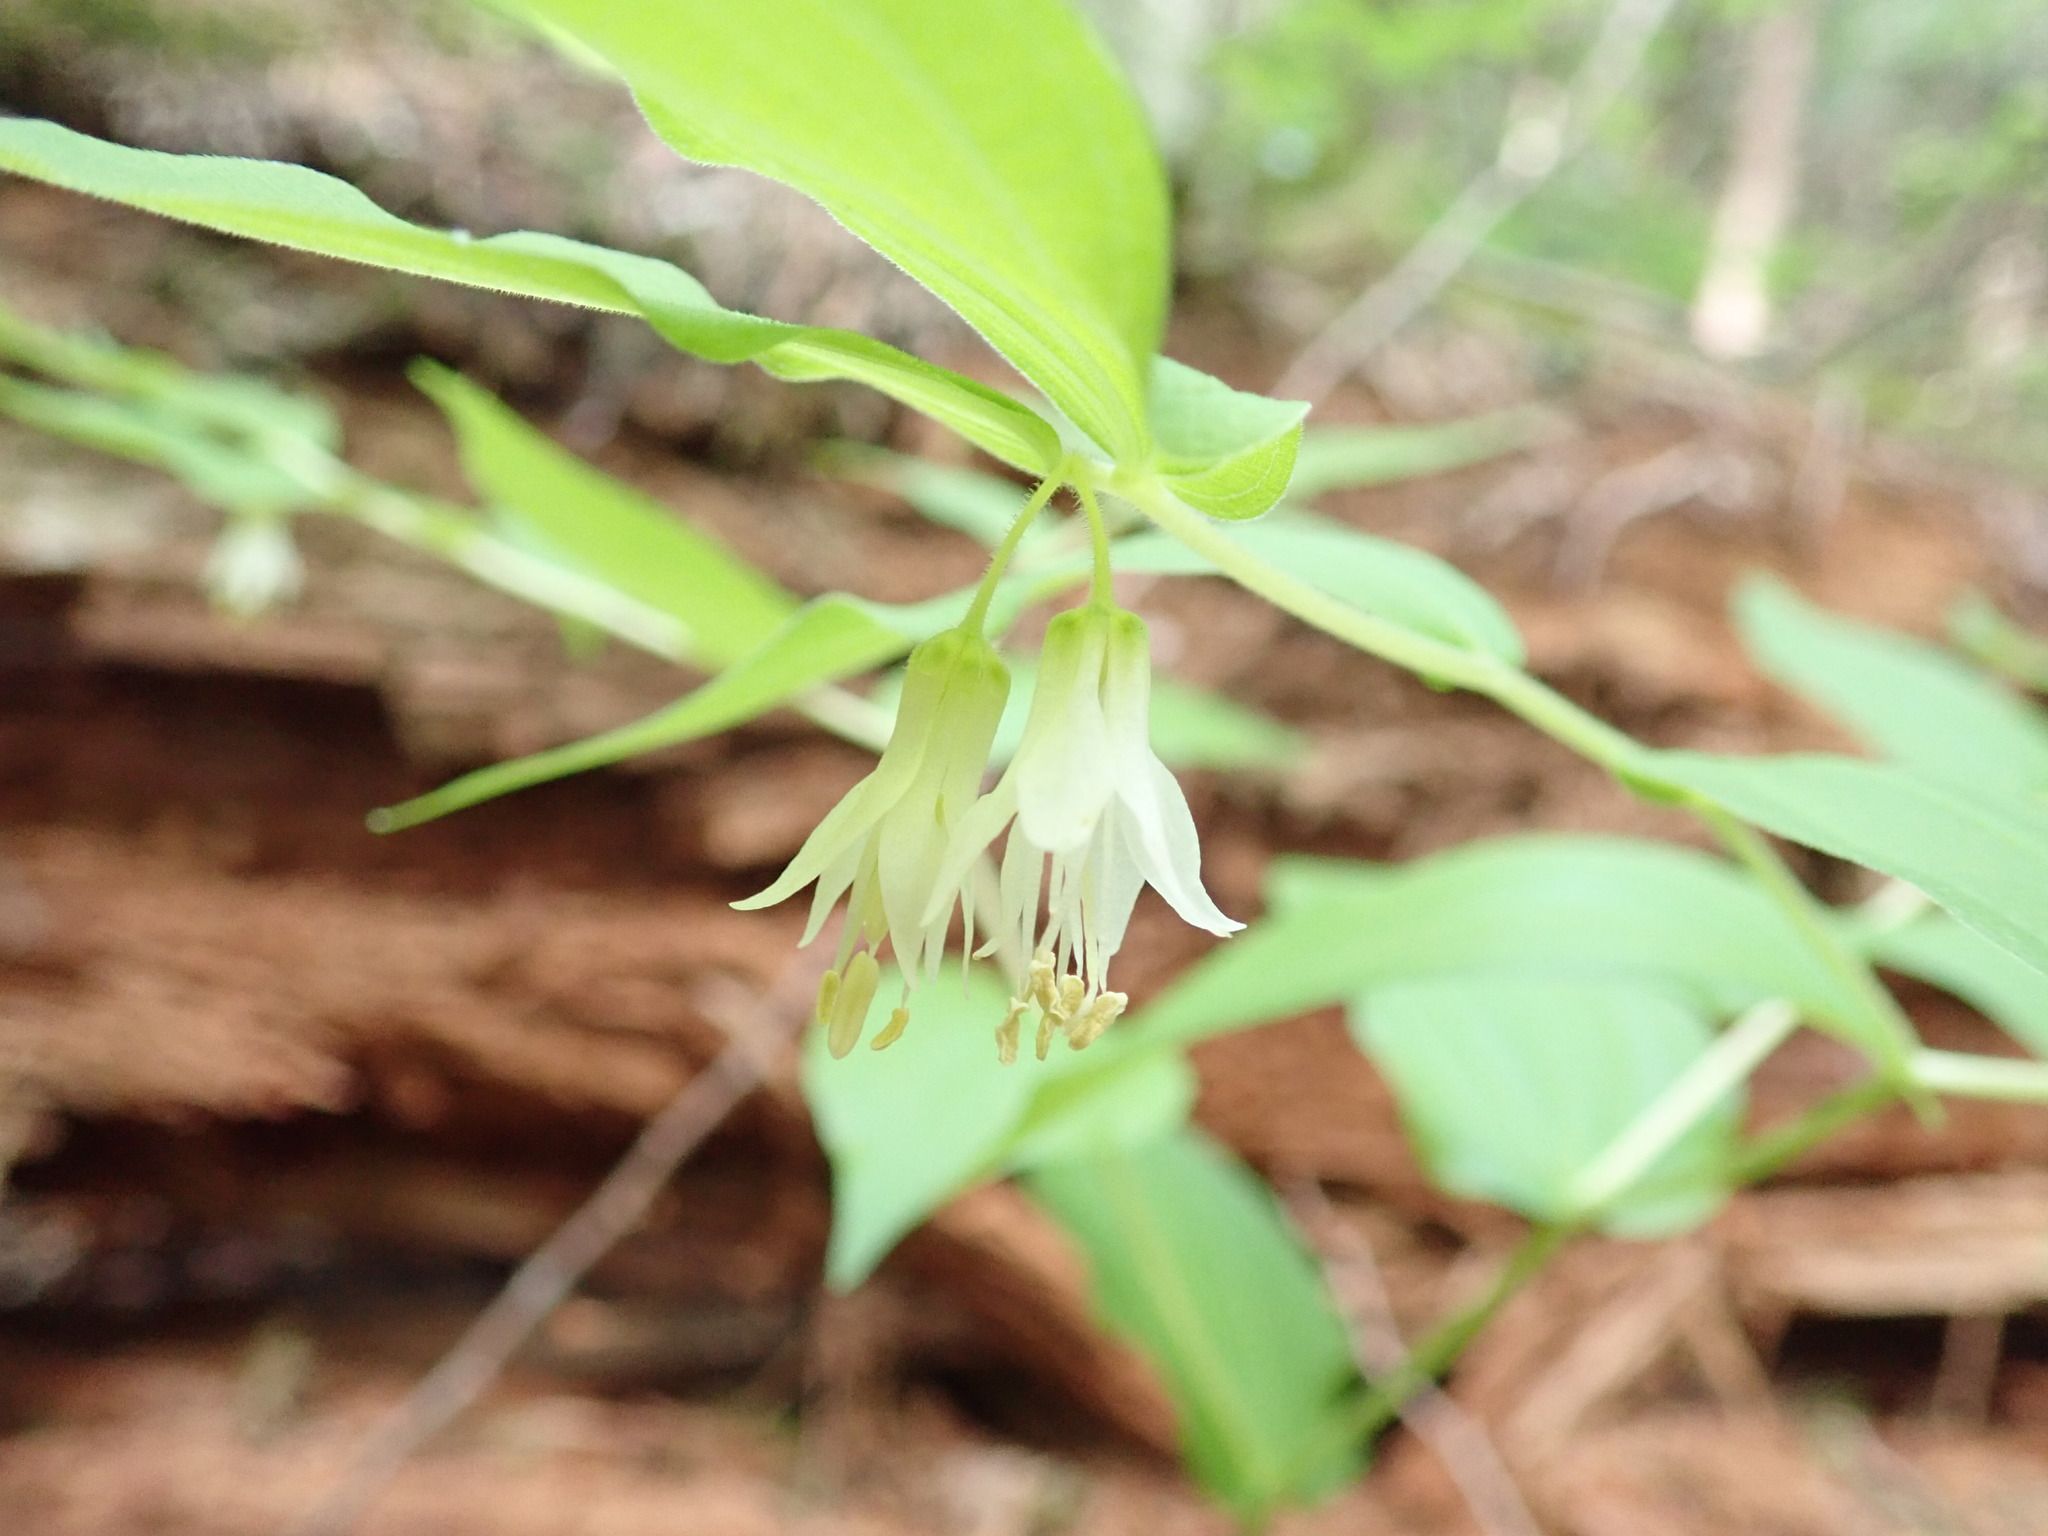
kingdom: Plantae
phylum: Tracheophyta
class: Liliopsida
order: Liliales
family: Liliaceae
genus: Prosartes
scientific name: Prosartes hookeri
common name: Fairy-bells
